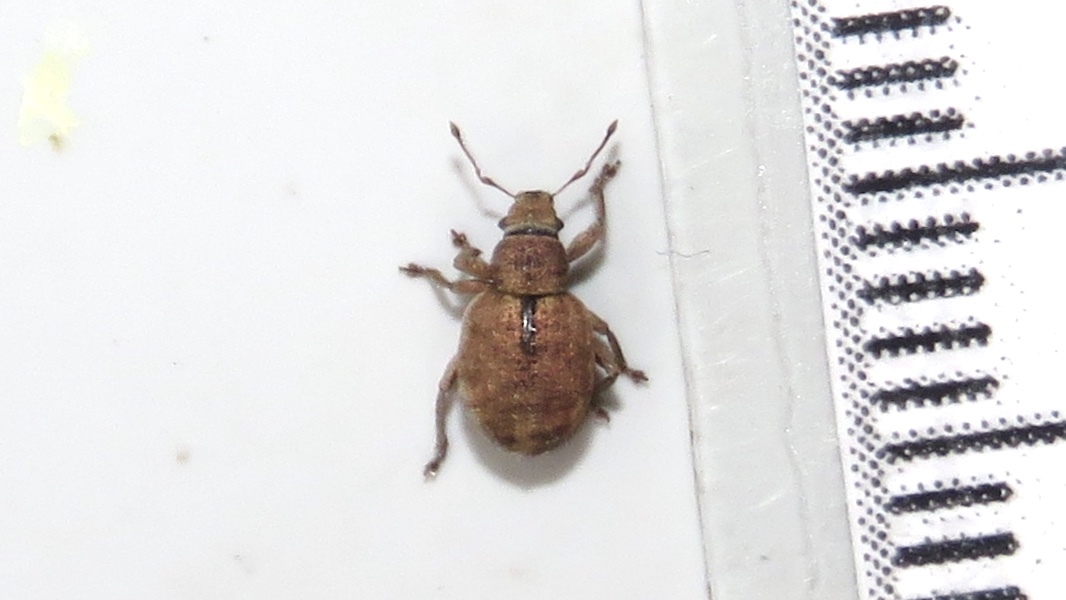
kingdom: Animalia
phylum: Arthropoda
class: Insecta
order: Coleoptera
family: Curculionidae
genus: Strophosoma
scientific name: Strophosoma melanogrammum
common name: Weevil
